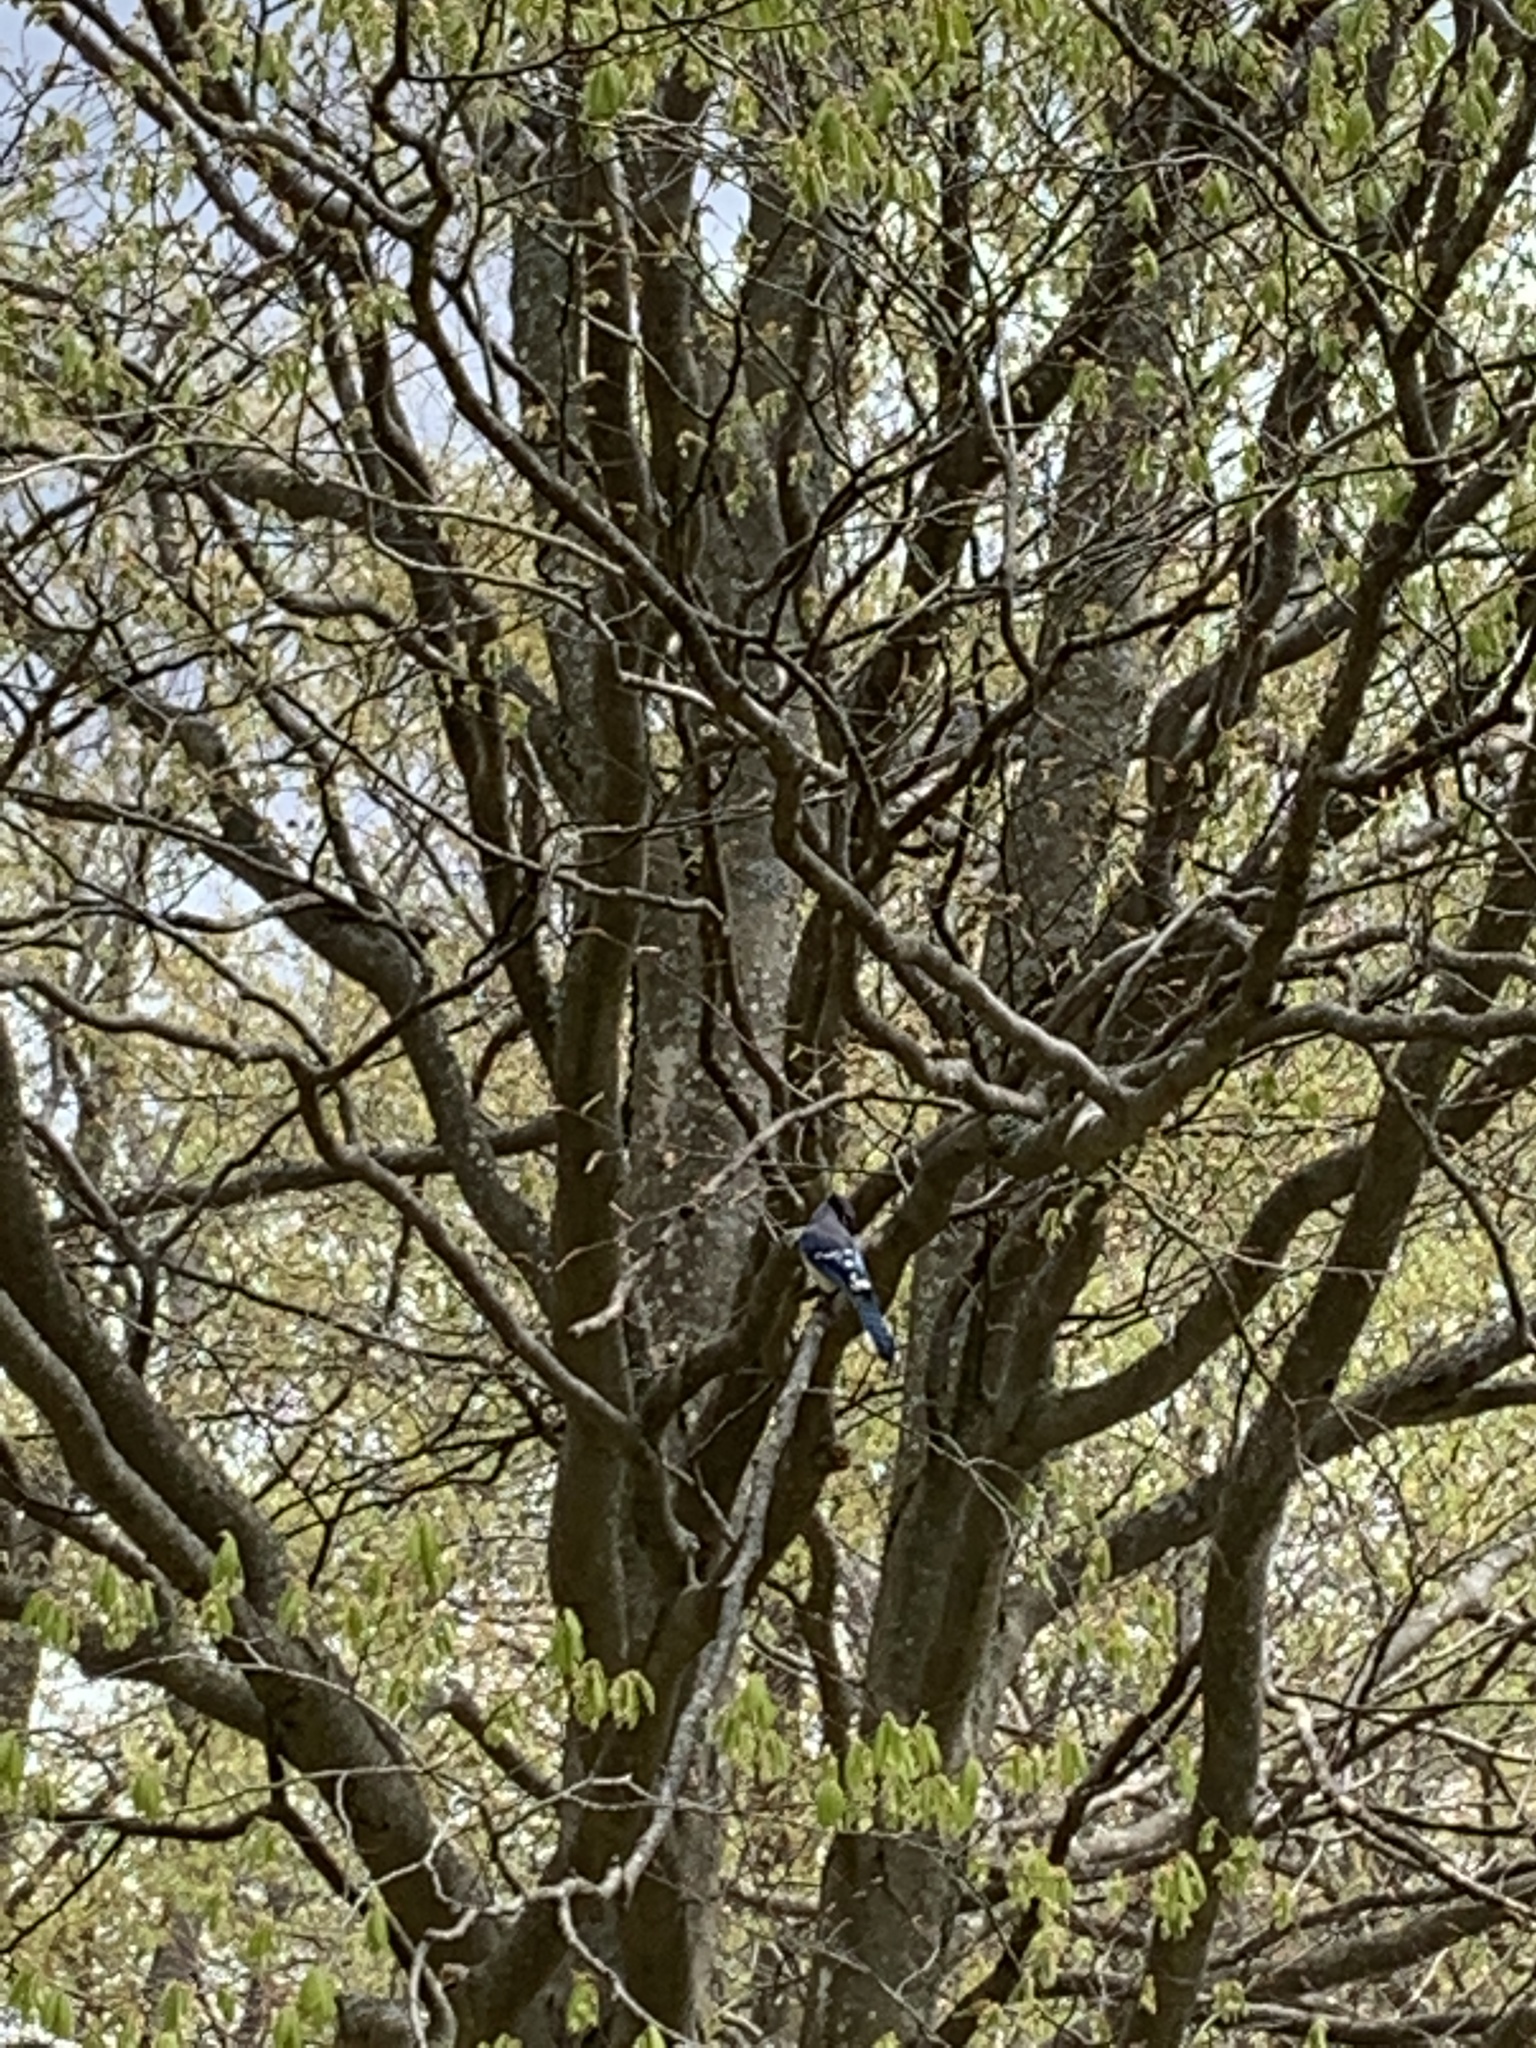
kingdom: Animalia
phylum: Chordata
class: Aves
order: Passeriformes
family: Corvidae
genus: Cyanocitta
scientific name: Cyanocitta cristata
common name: Blue jay
